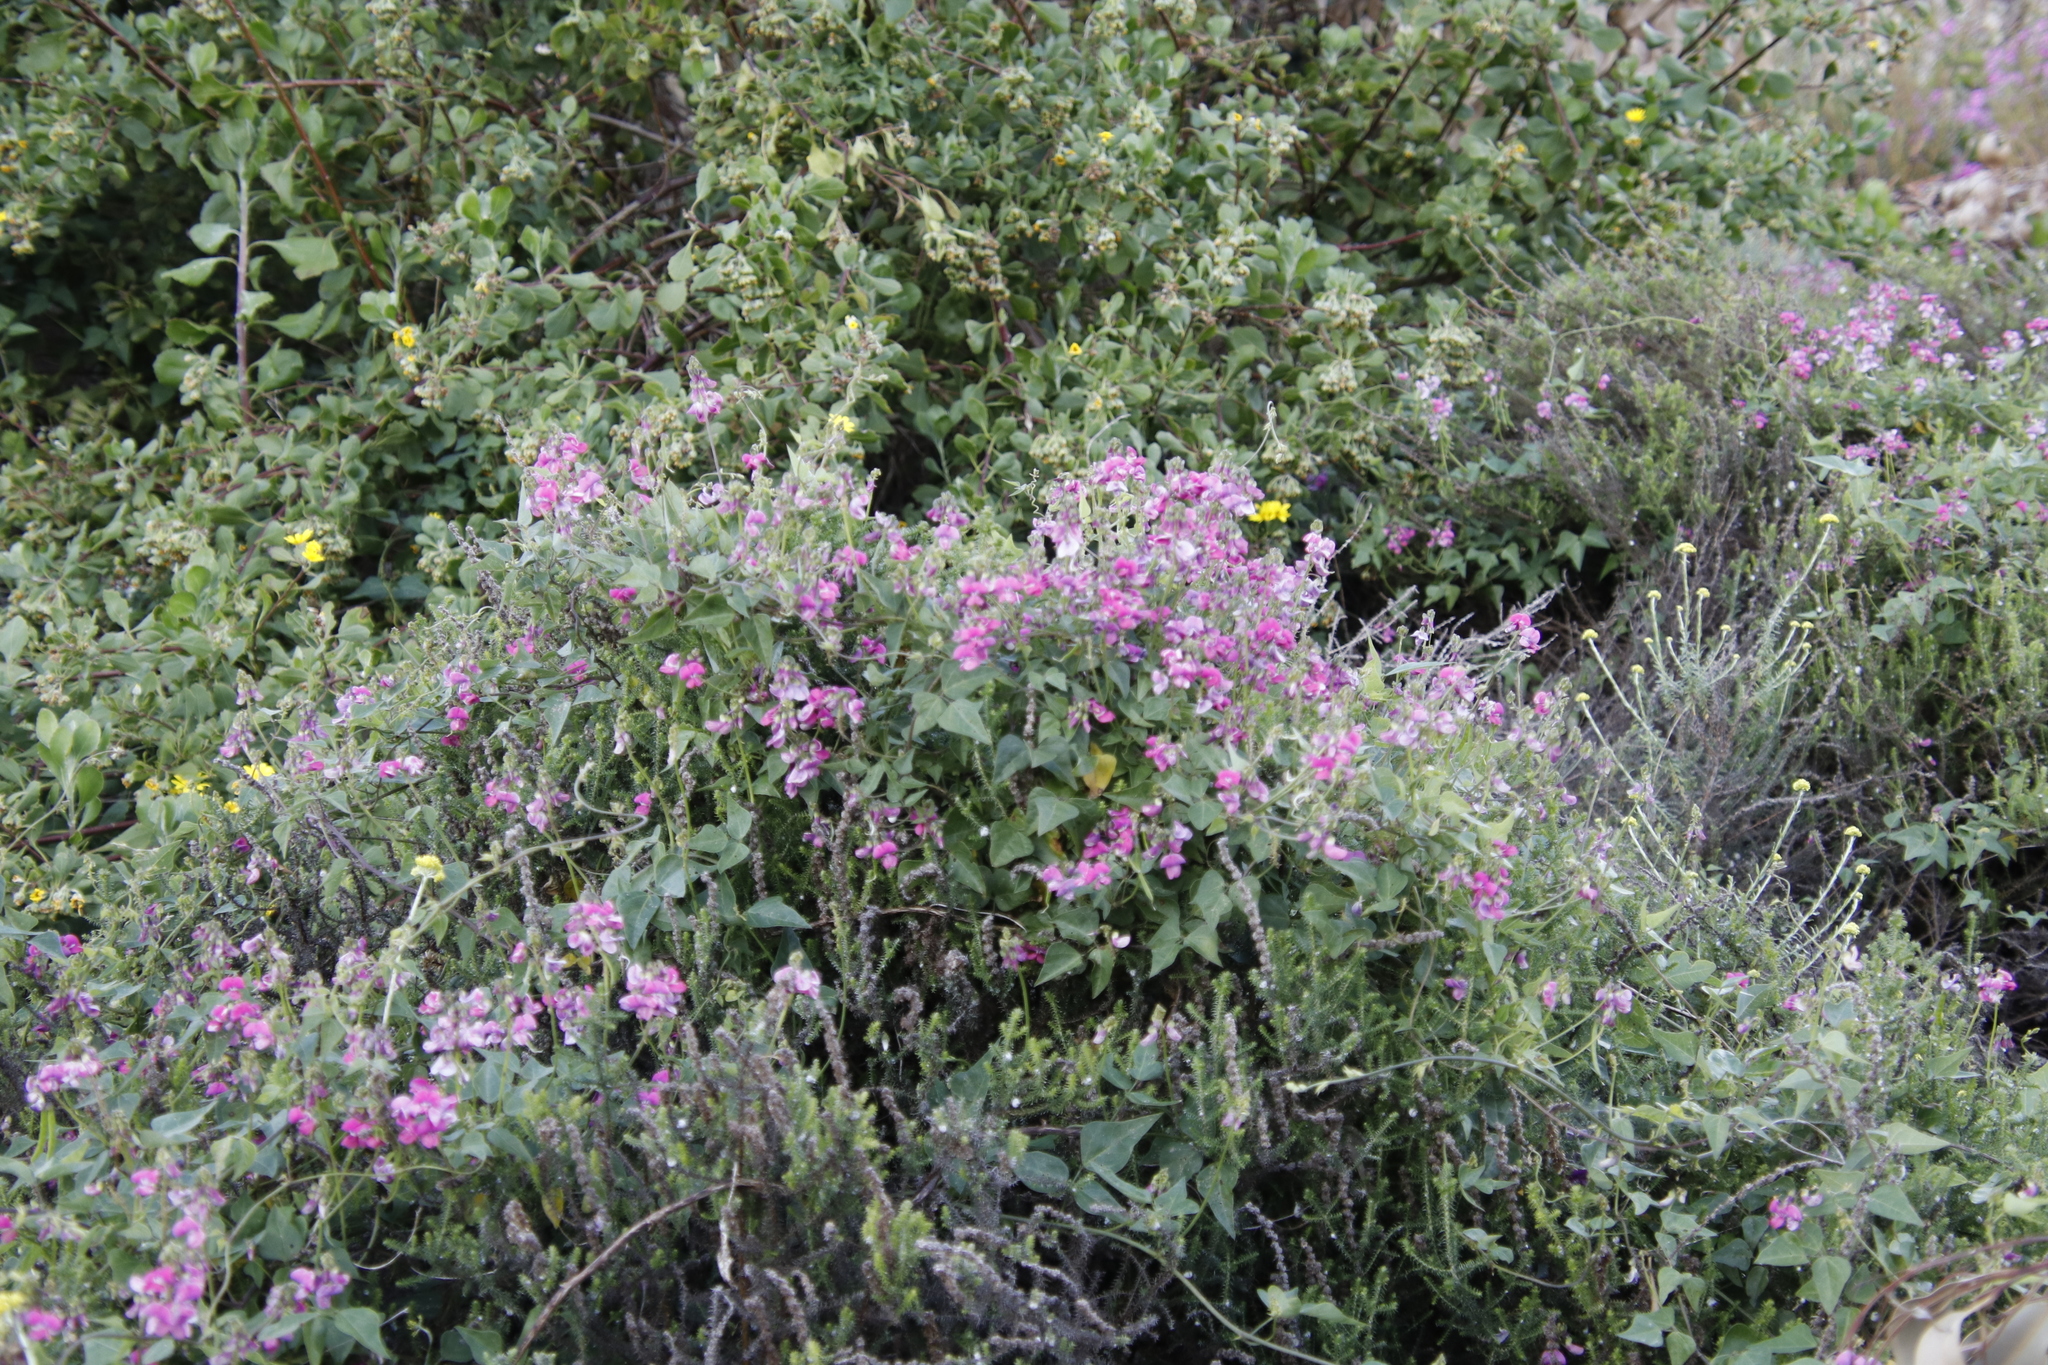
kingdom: Plantae
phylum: Tracheophyta
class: Magnoliopsida
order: Fabales
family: Fabaceae
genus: Dipogon
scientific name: Dipogon lignosus
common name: Okie bean
